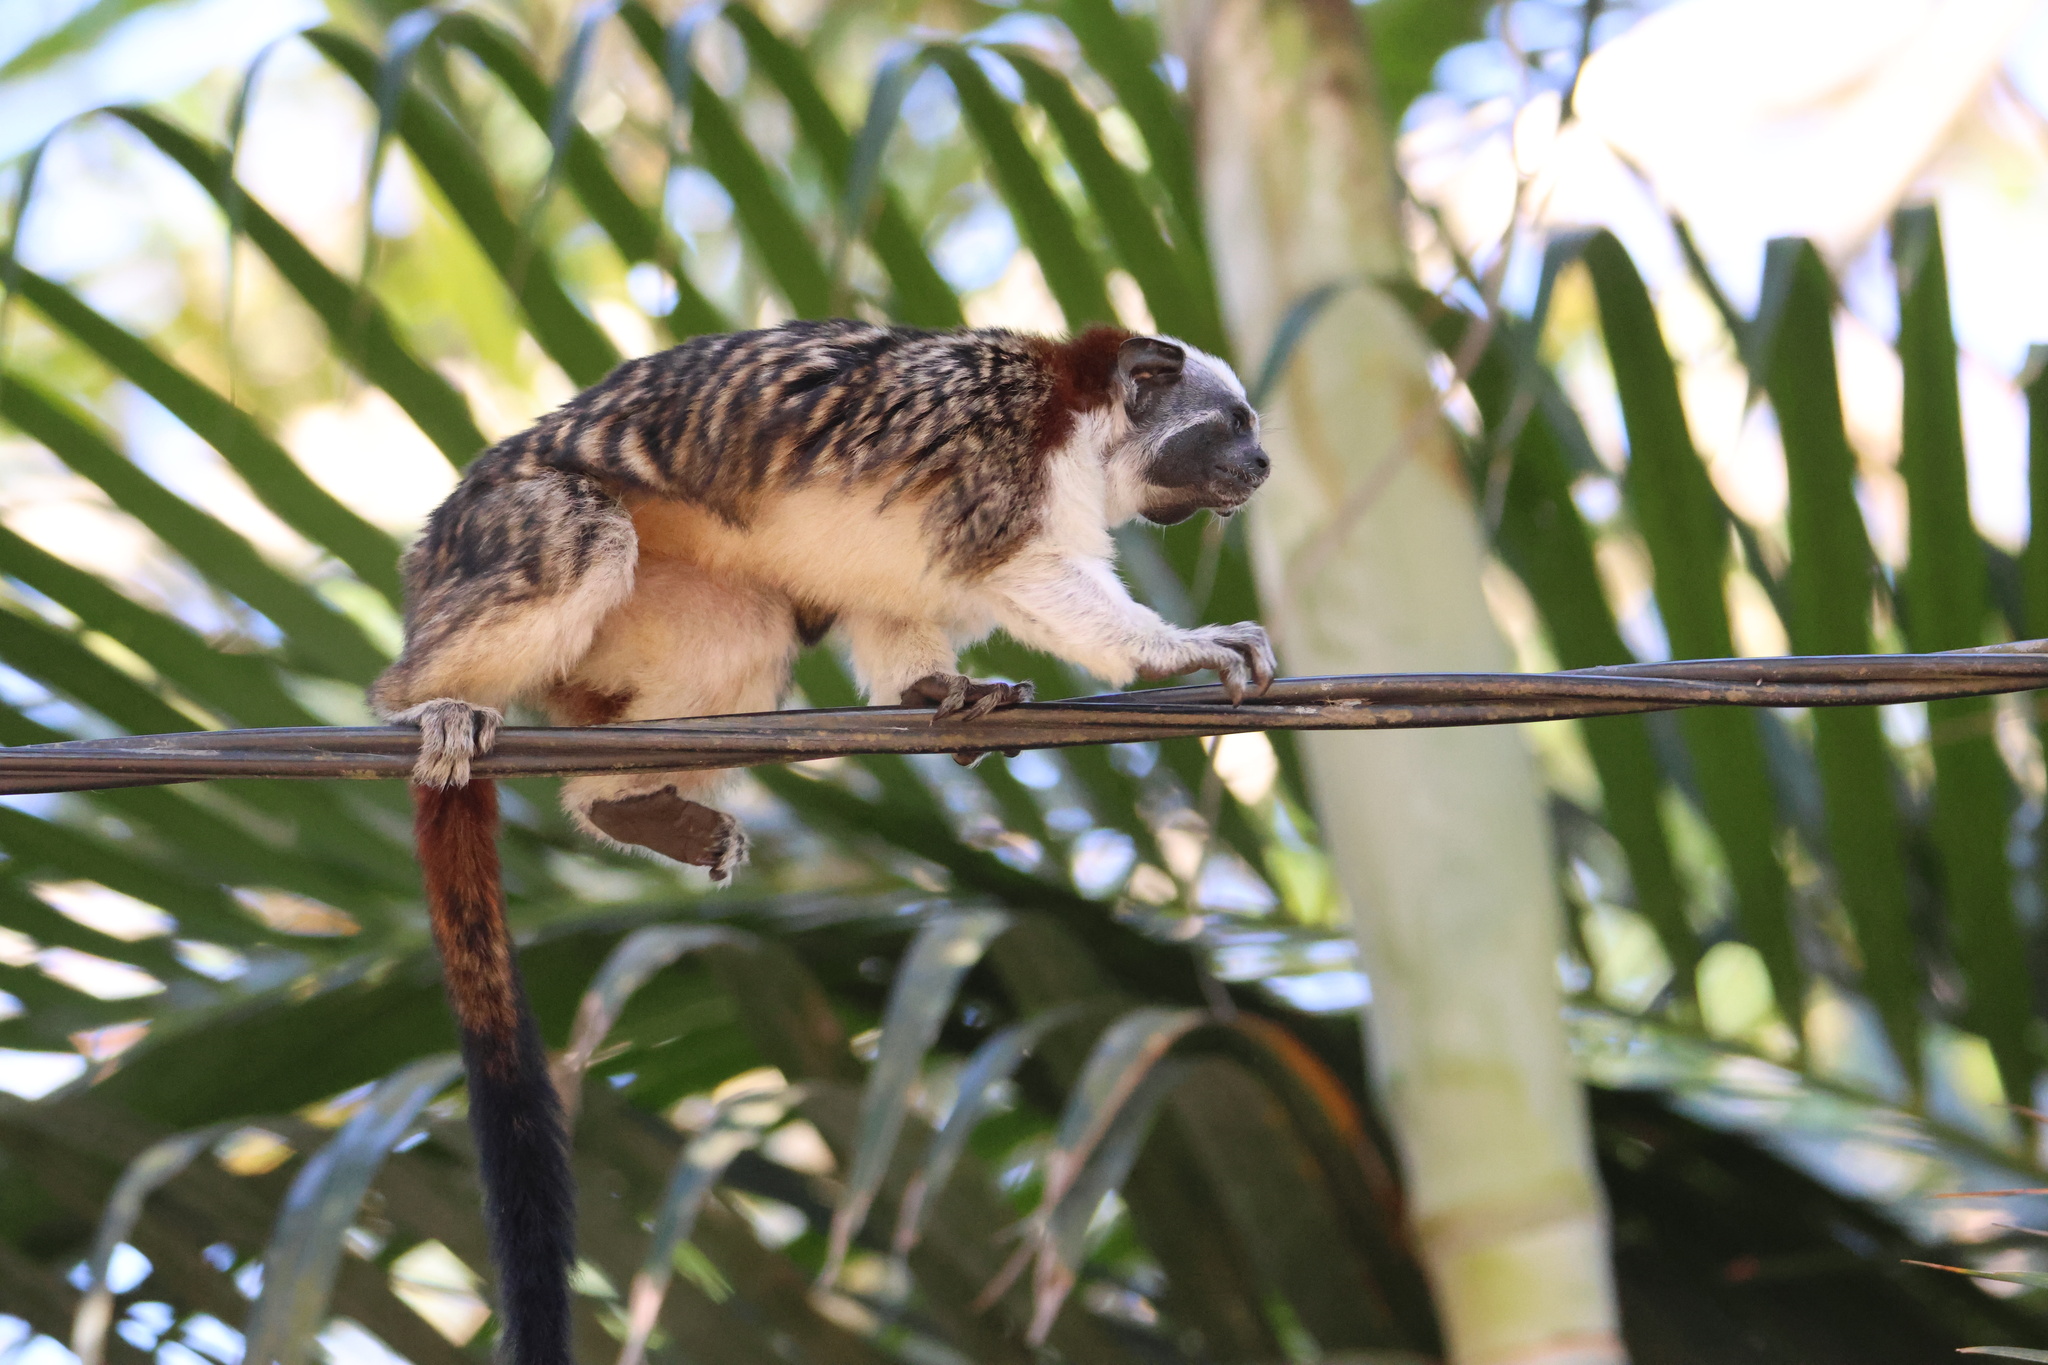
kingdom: Animalia
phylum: Chordata
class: Mammalia
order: Primates
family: Callitrichidae
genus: Saguinus
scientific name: Saguinus geoffroyi
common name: Geoffroy s tamarin
